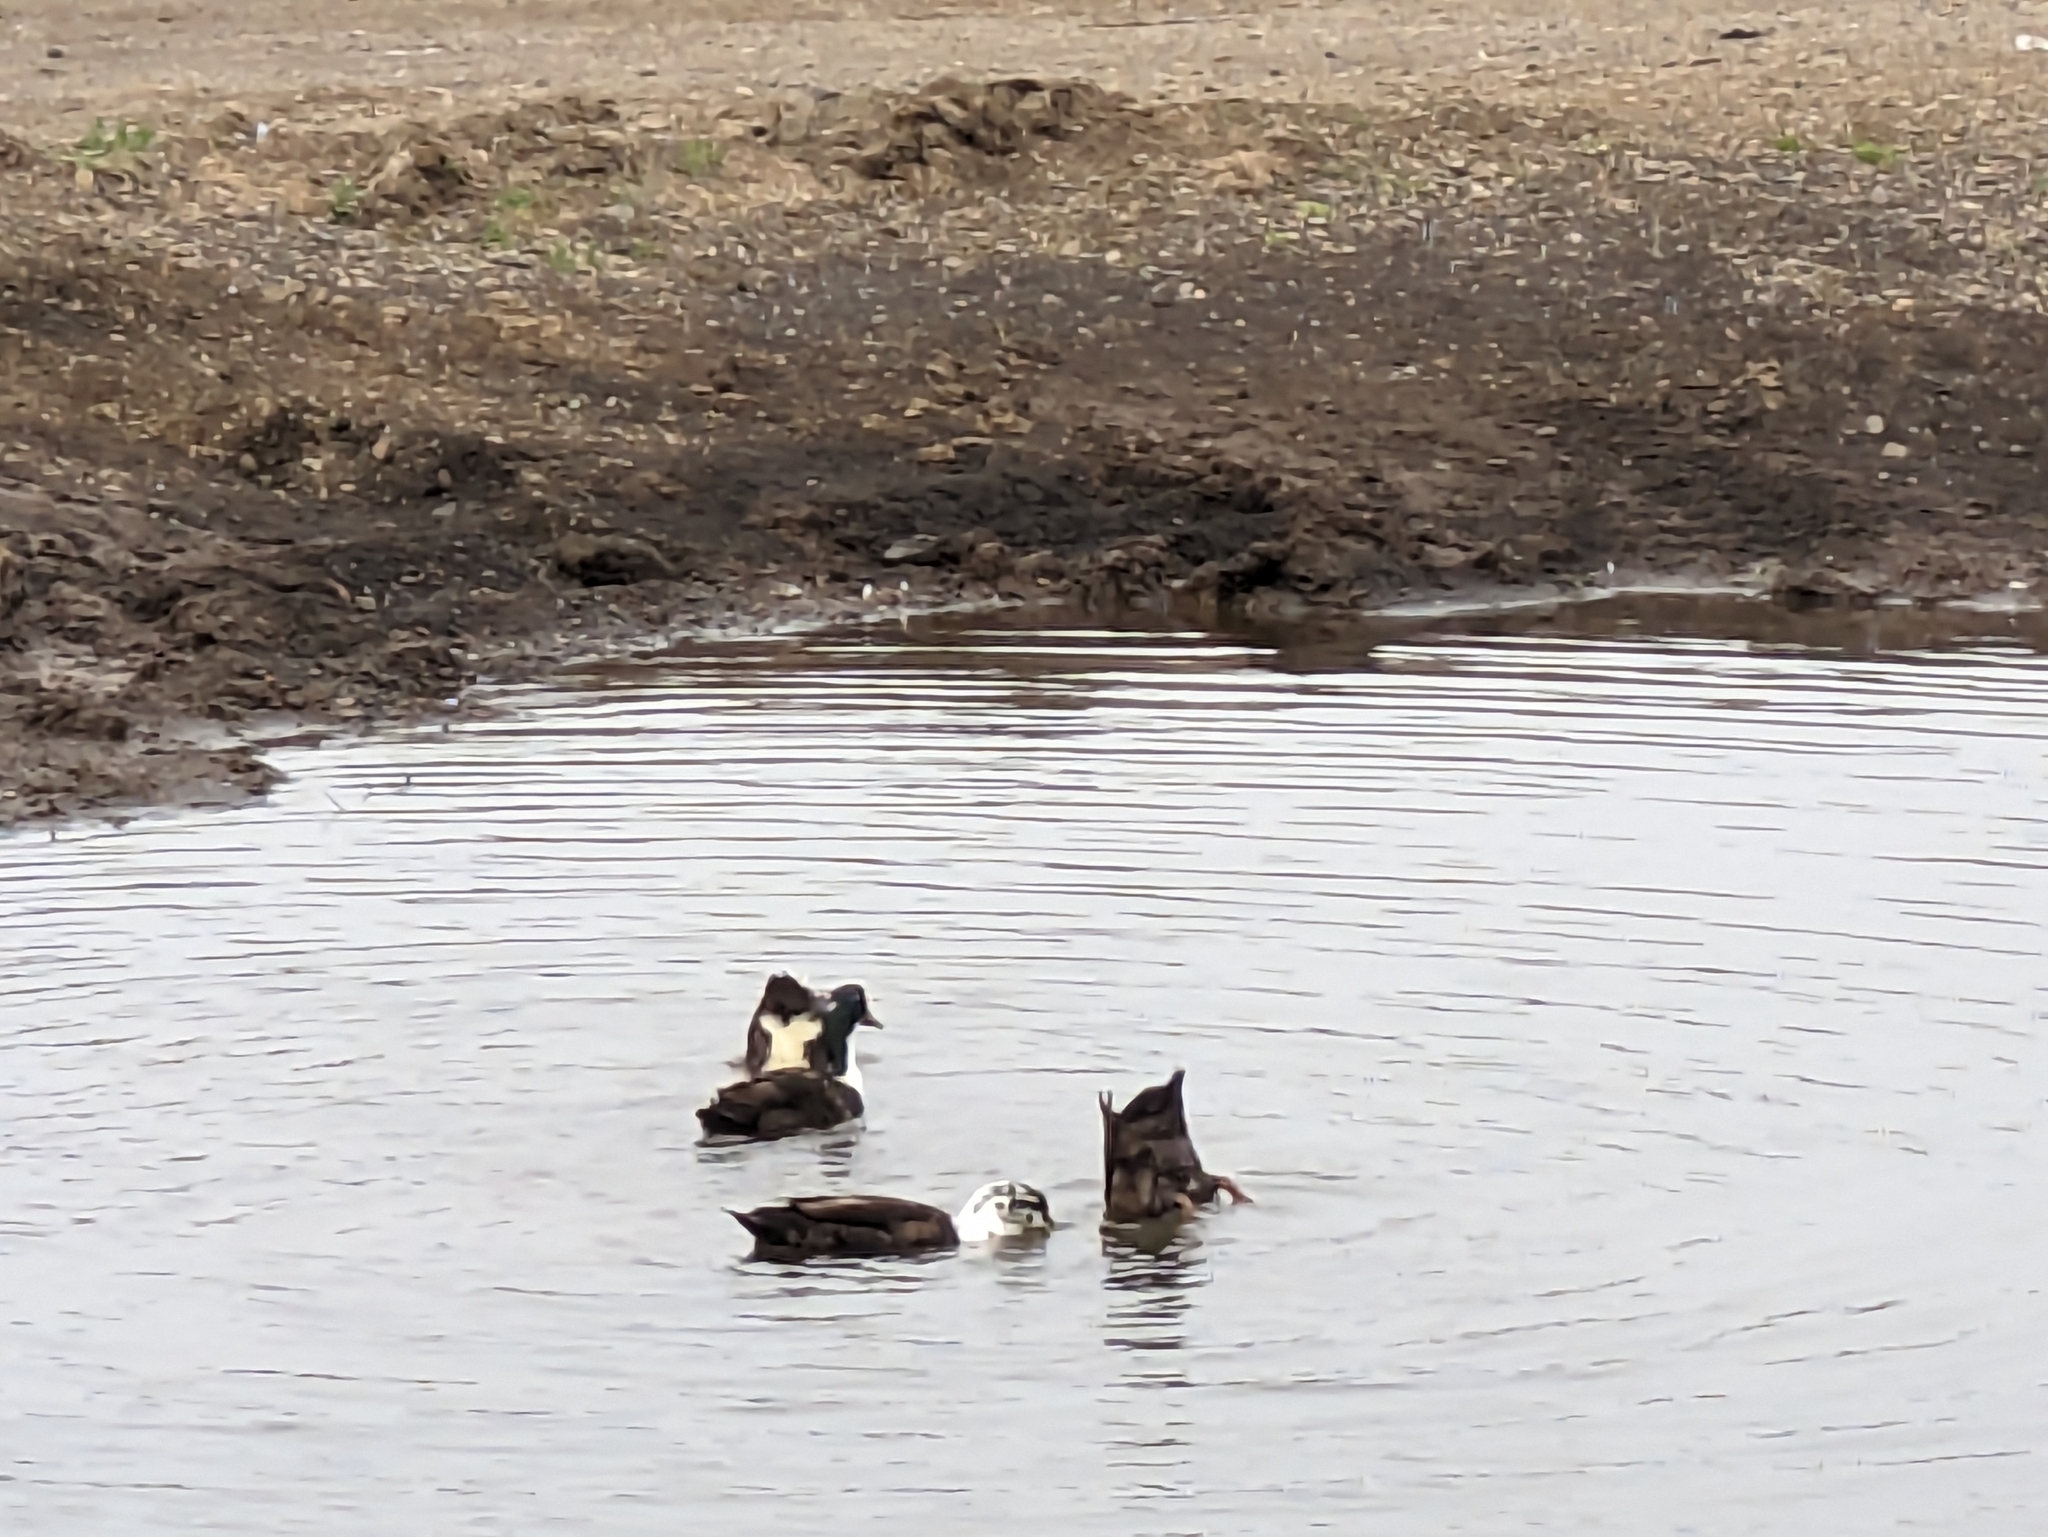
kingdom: Animalia
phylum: Chordata
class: Aves
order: Anseriformes
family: Anatidae
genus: Anas
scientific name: Anas platyrhynchos
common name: Mallard
